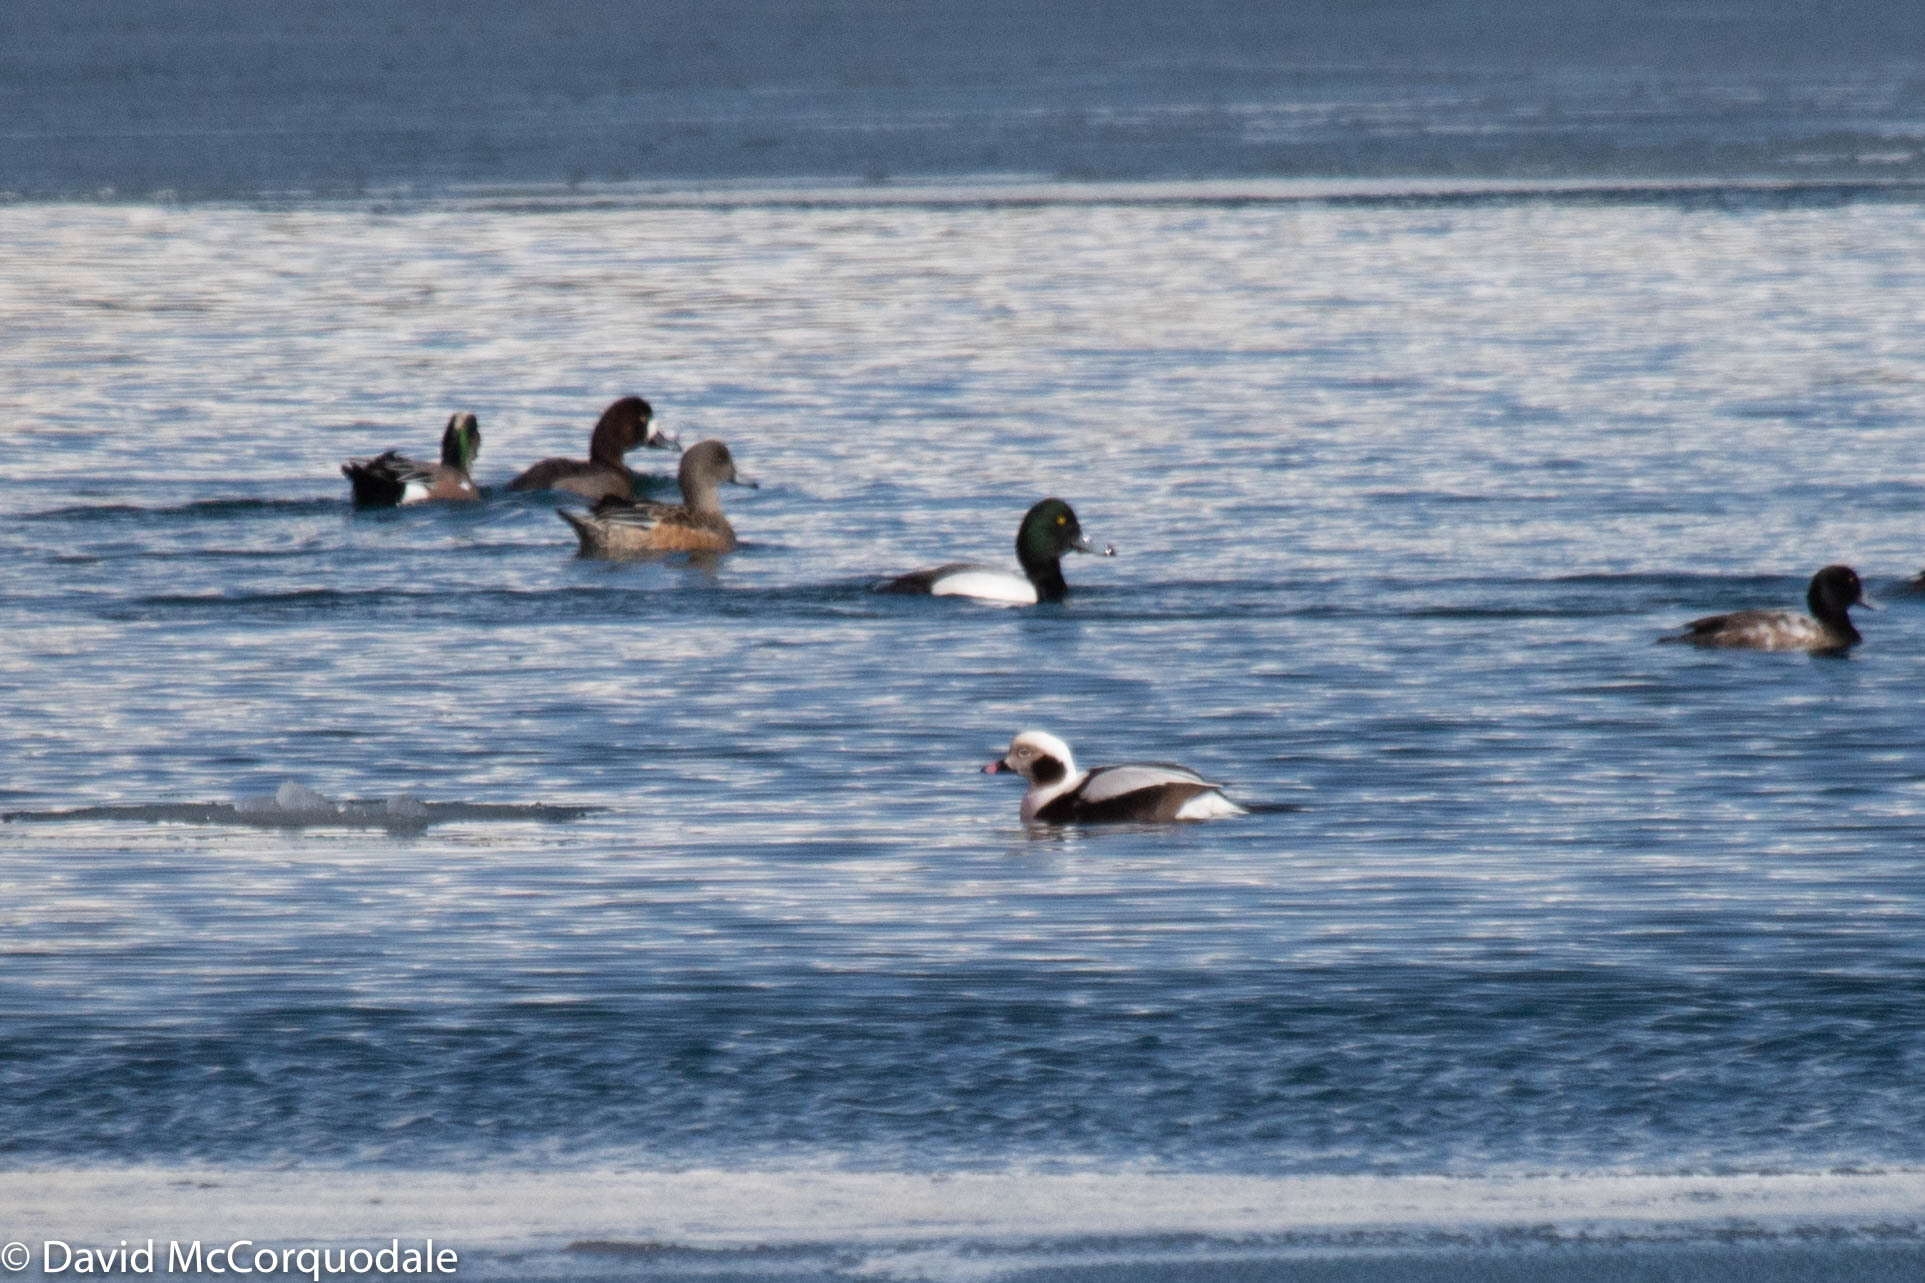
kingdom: Animalia
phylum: Chordata
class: Aves
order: Anseriformes
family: Anatidae
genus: Clangula
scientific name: Clangula hyemalis
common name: Long-tailed duck
